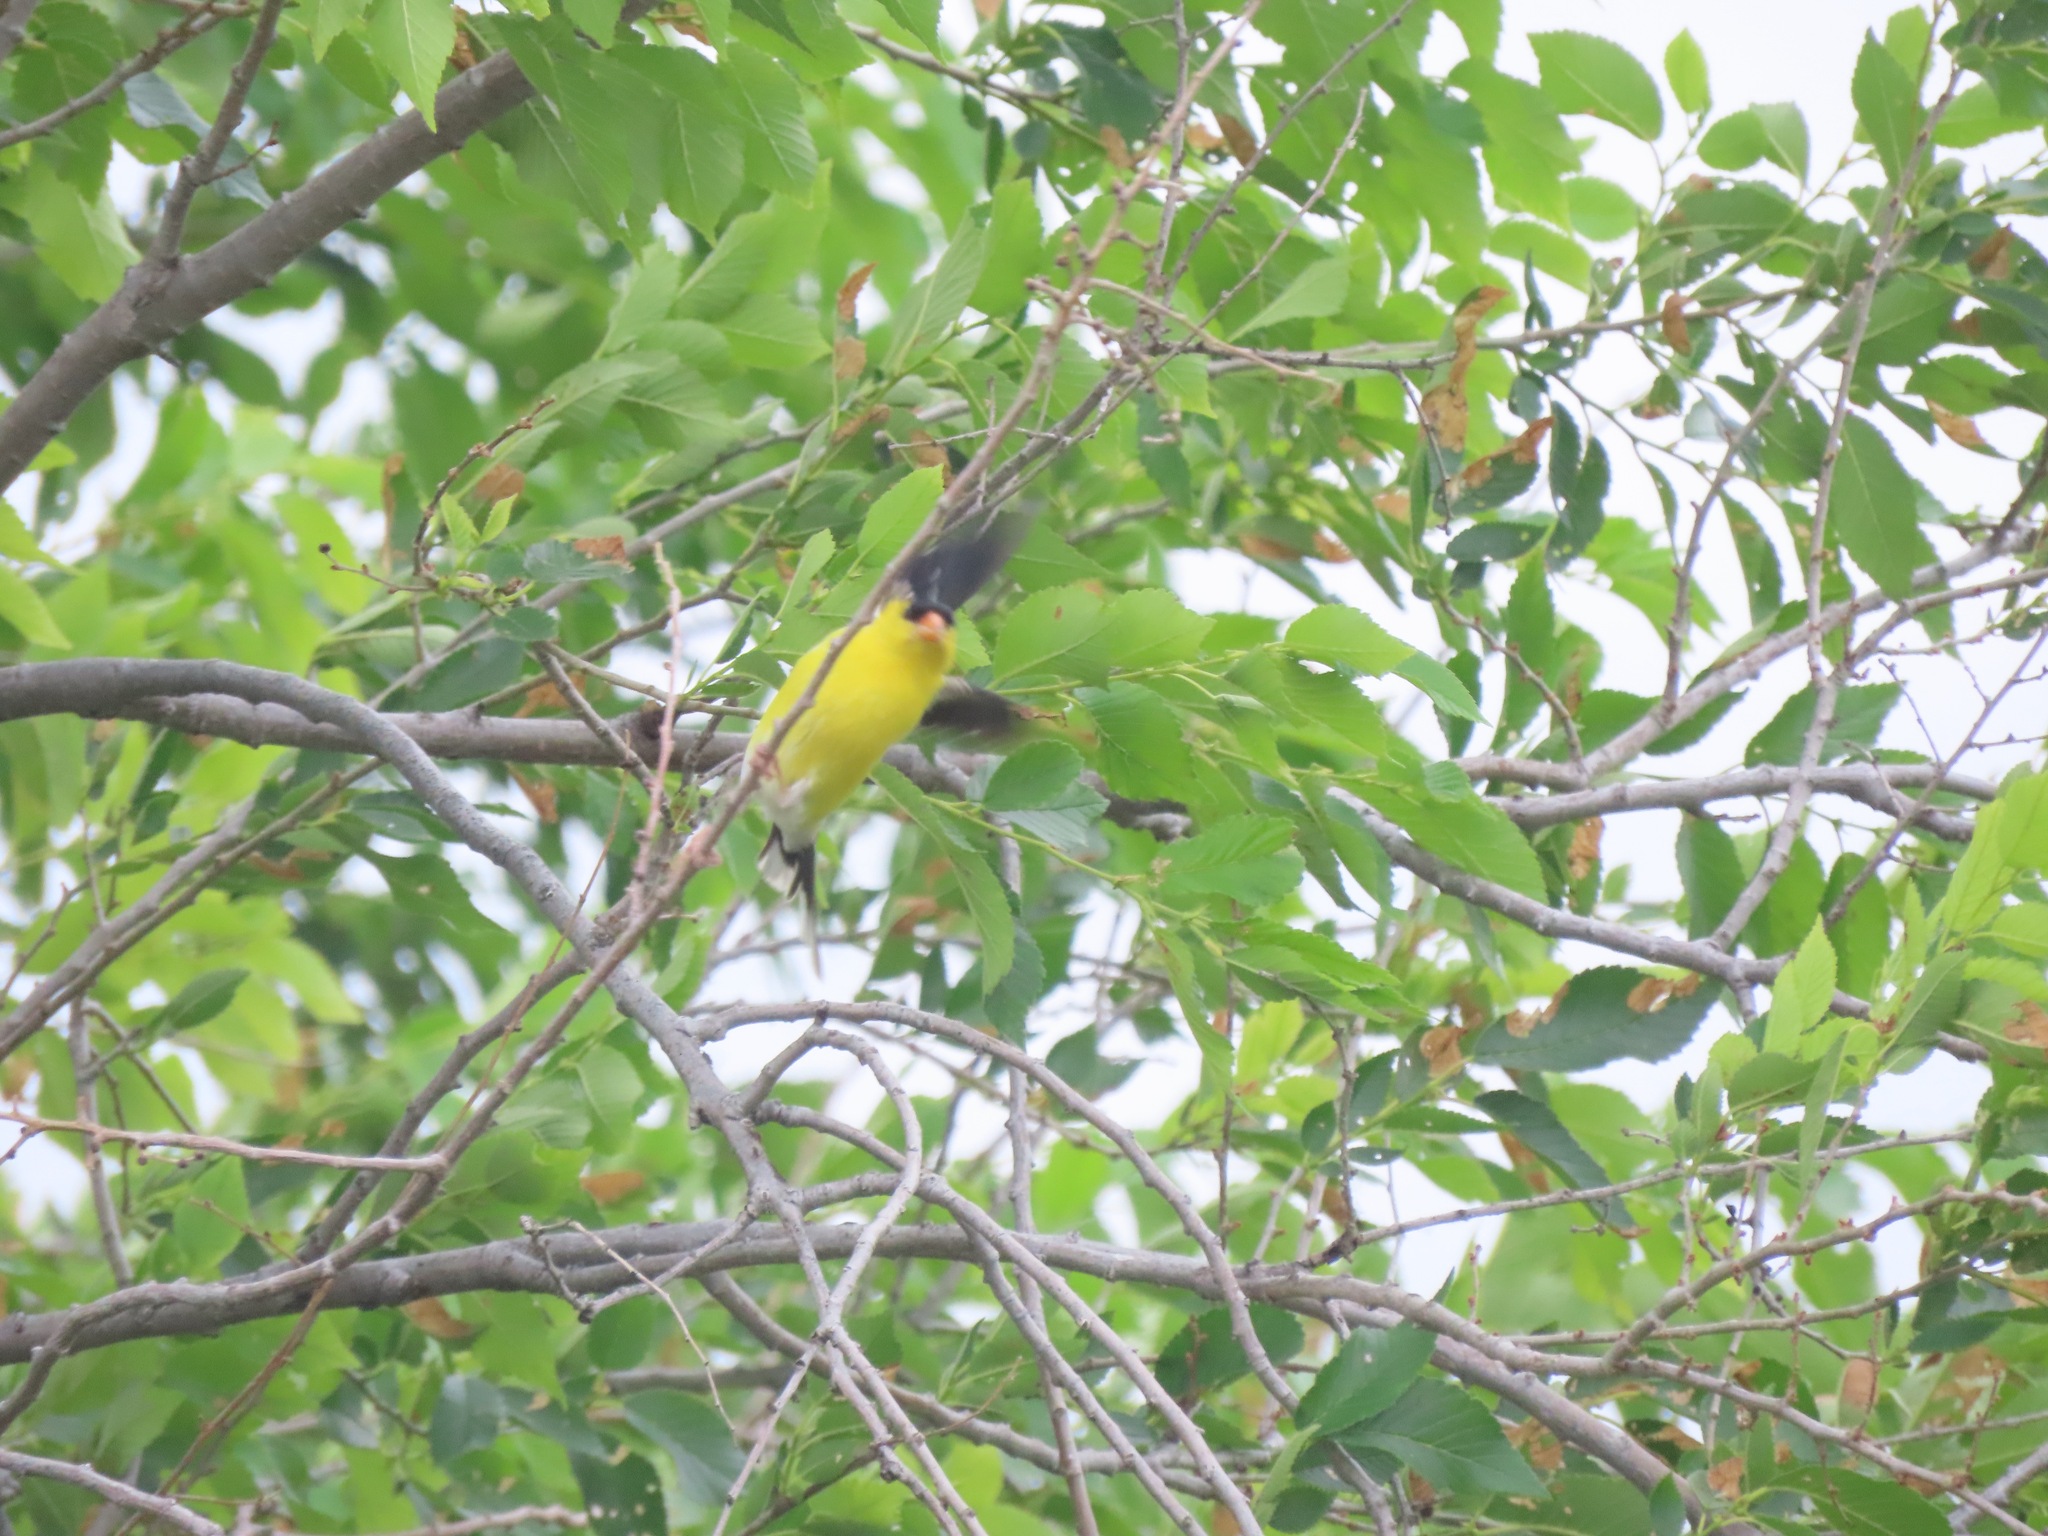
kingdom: Animalia
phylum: Chordata
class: Aves
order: Passeriformes
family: Fringillidae
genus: Spinus
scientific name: Spinus tristis
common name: American goldfinch
